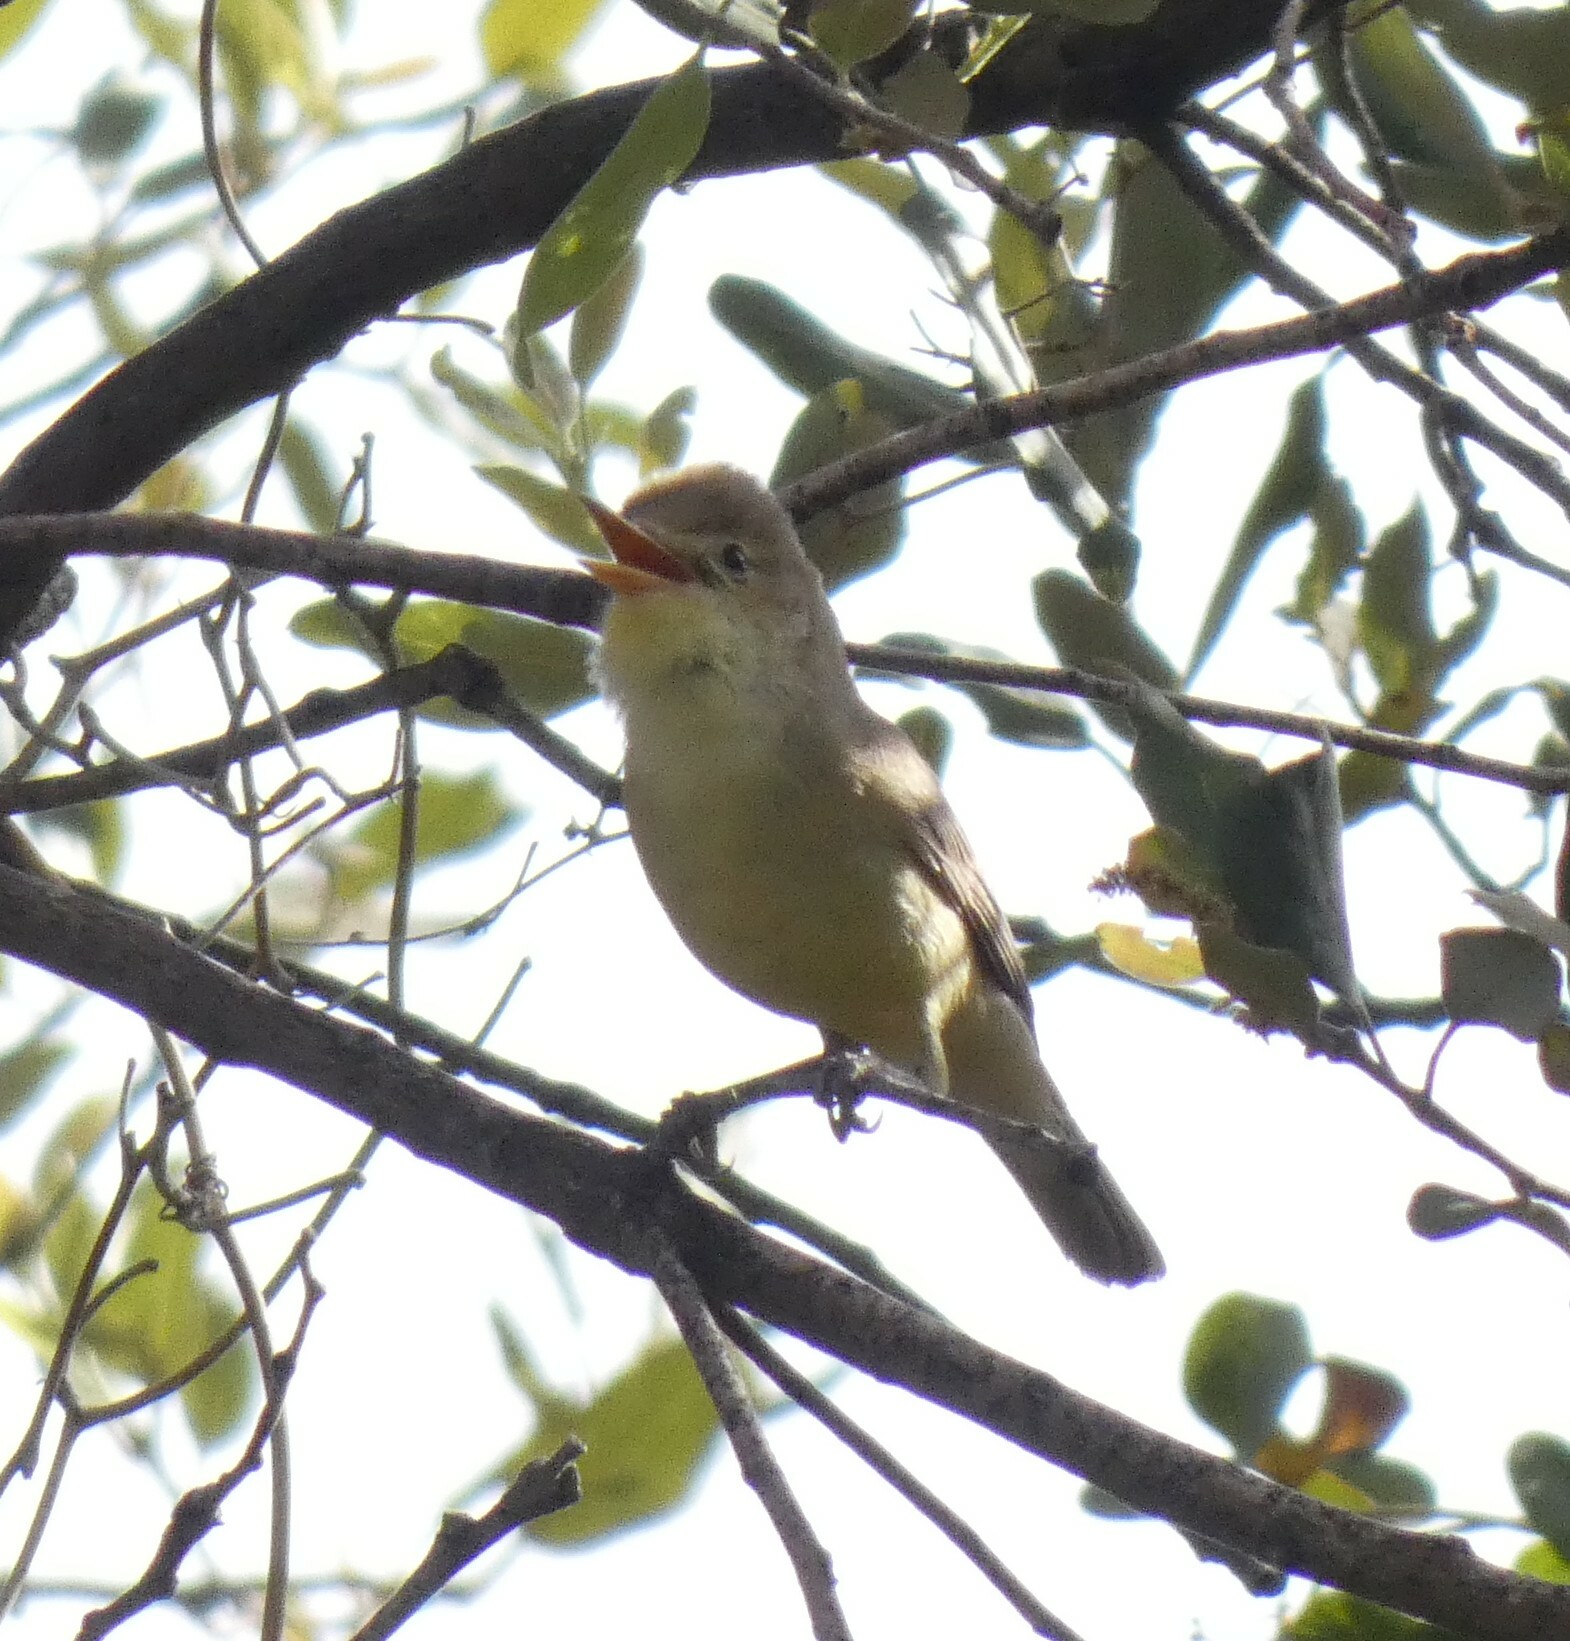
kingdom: Animalia
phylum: Chordata
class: Aves
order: Passeriformes
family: Acrocephalidae
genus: Hippolais
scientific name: Hippolais polyglotta
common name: Melodious warbler
